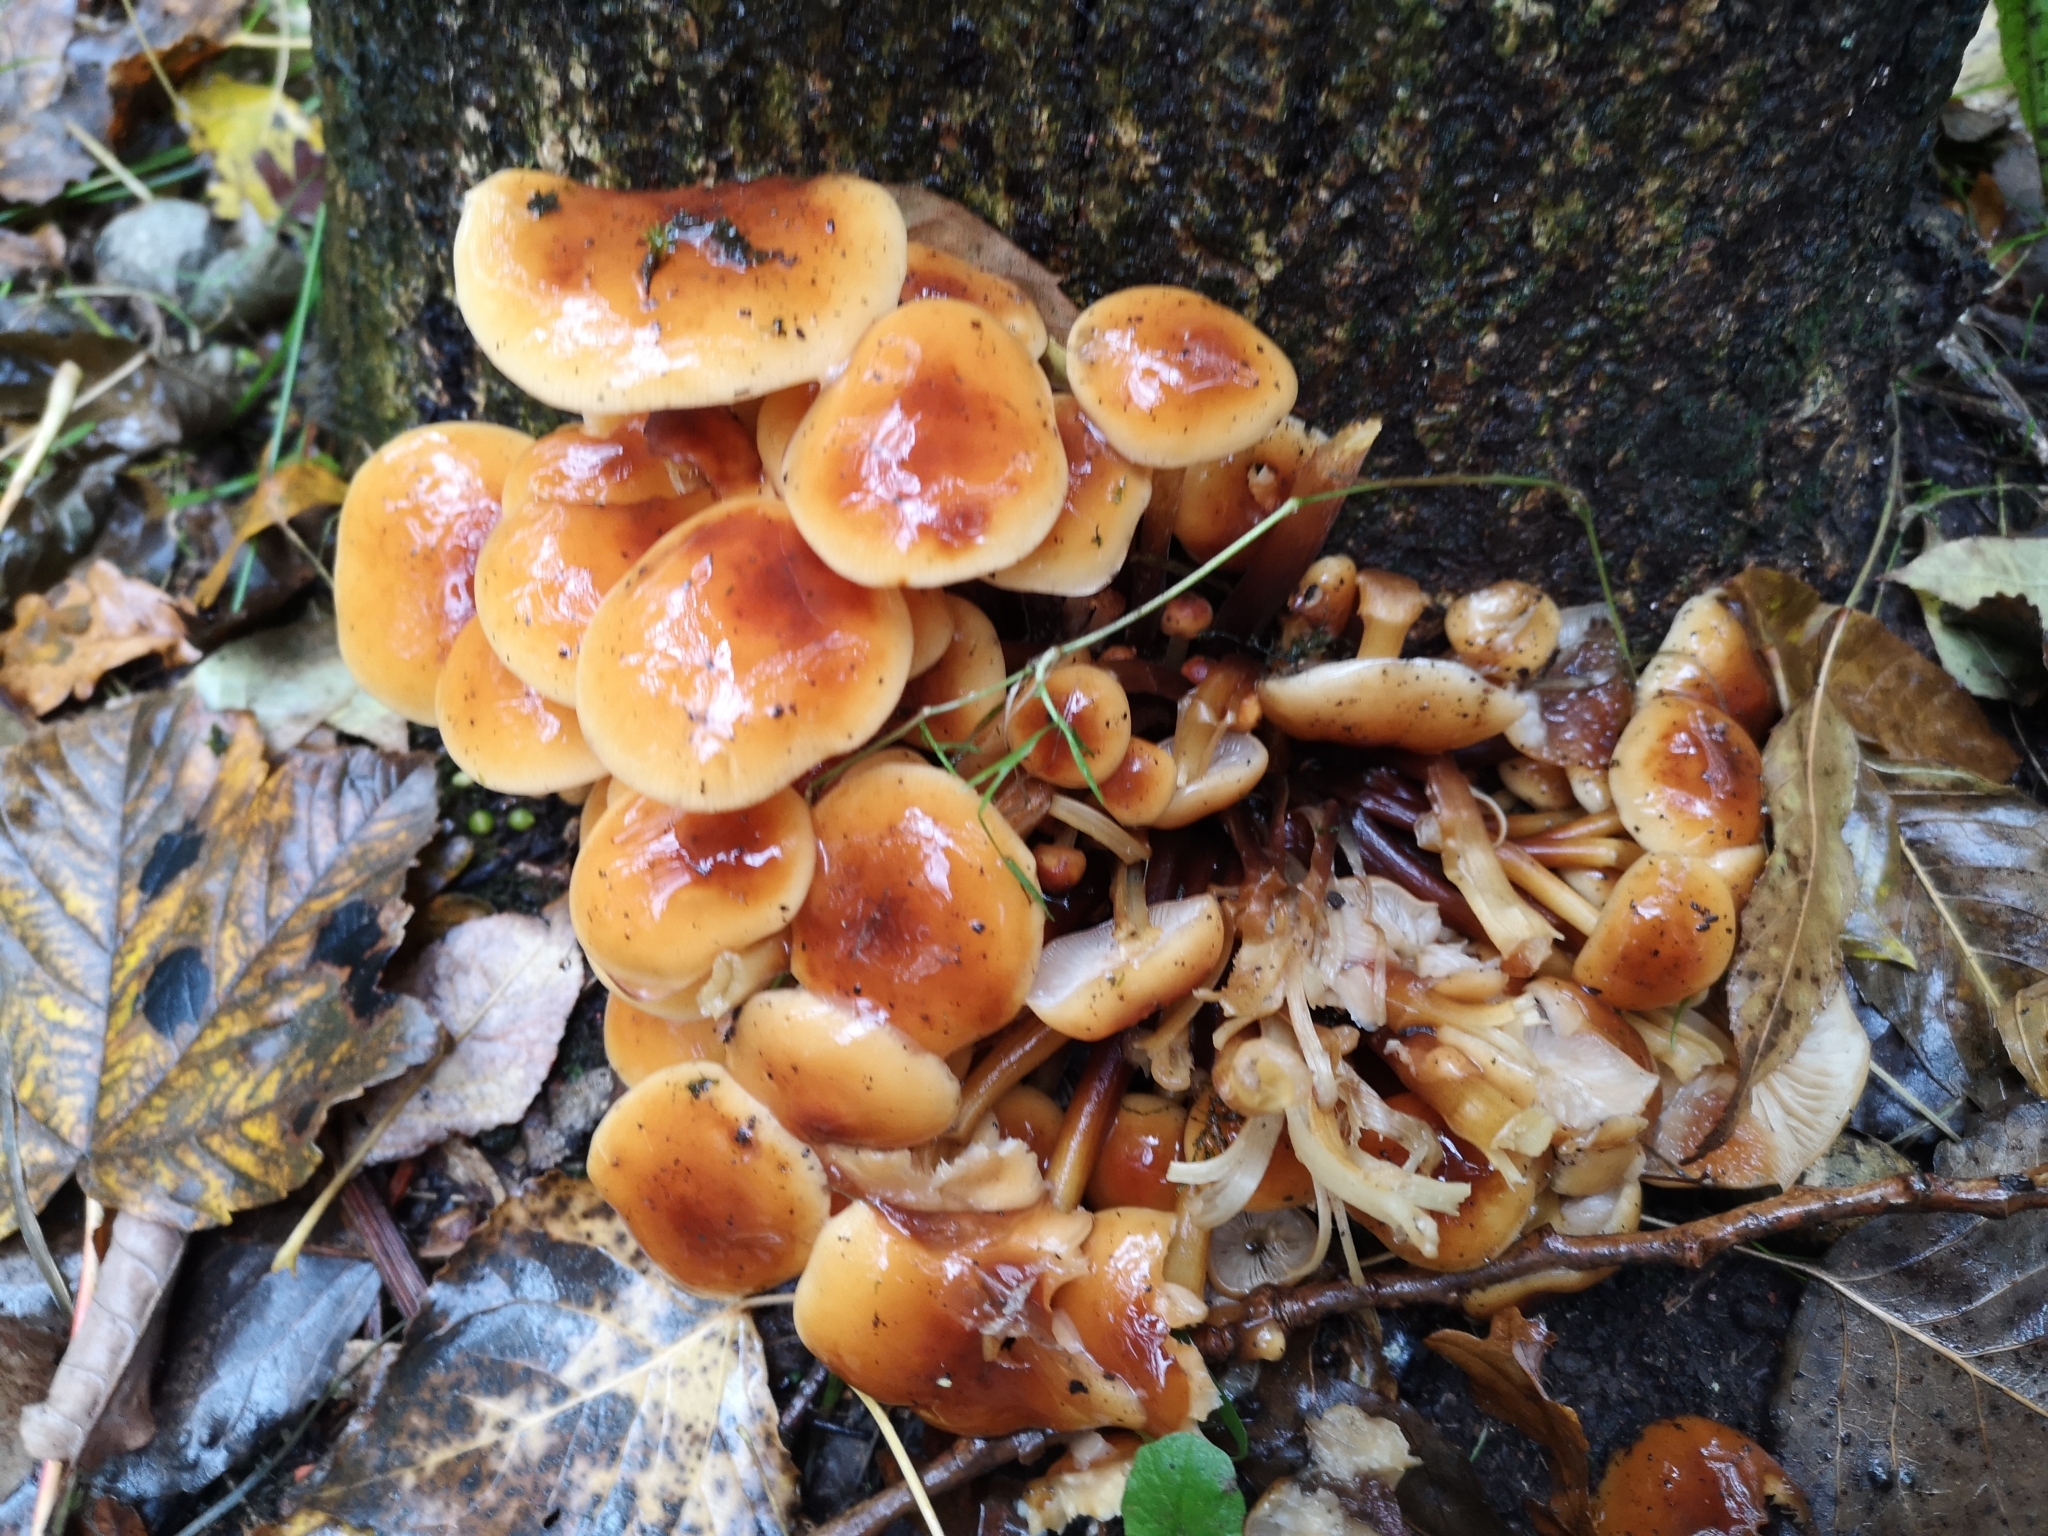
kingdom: Fungi
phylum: Basidiomycota
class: Agaricomycetes
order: Agaricales
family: Physalacriaceae
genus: Flammulina
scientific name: Flammulina
